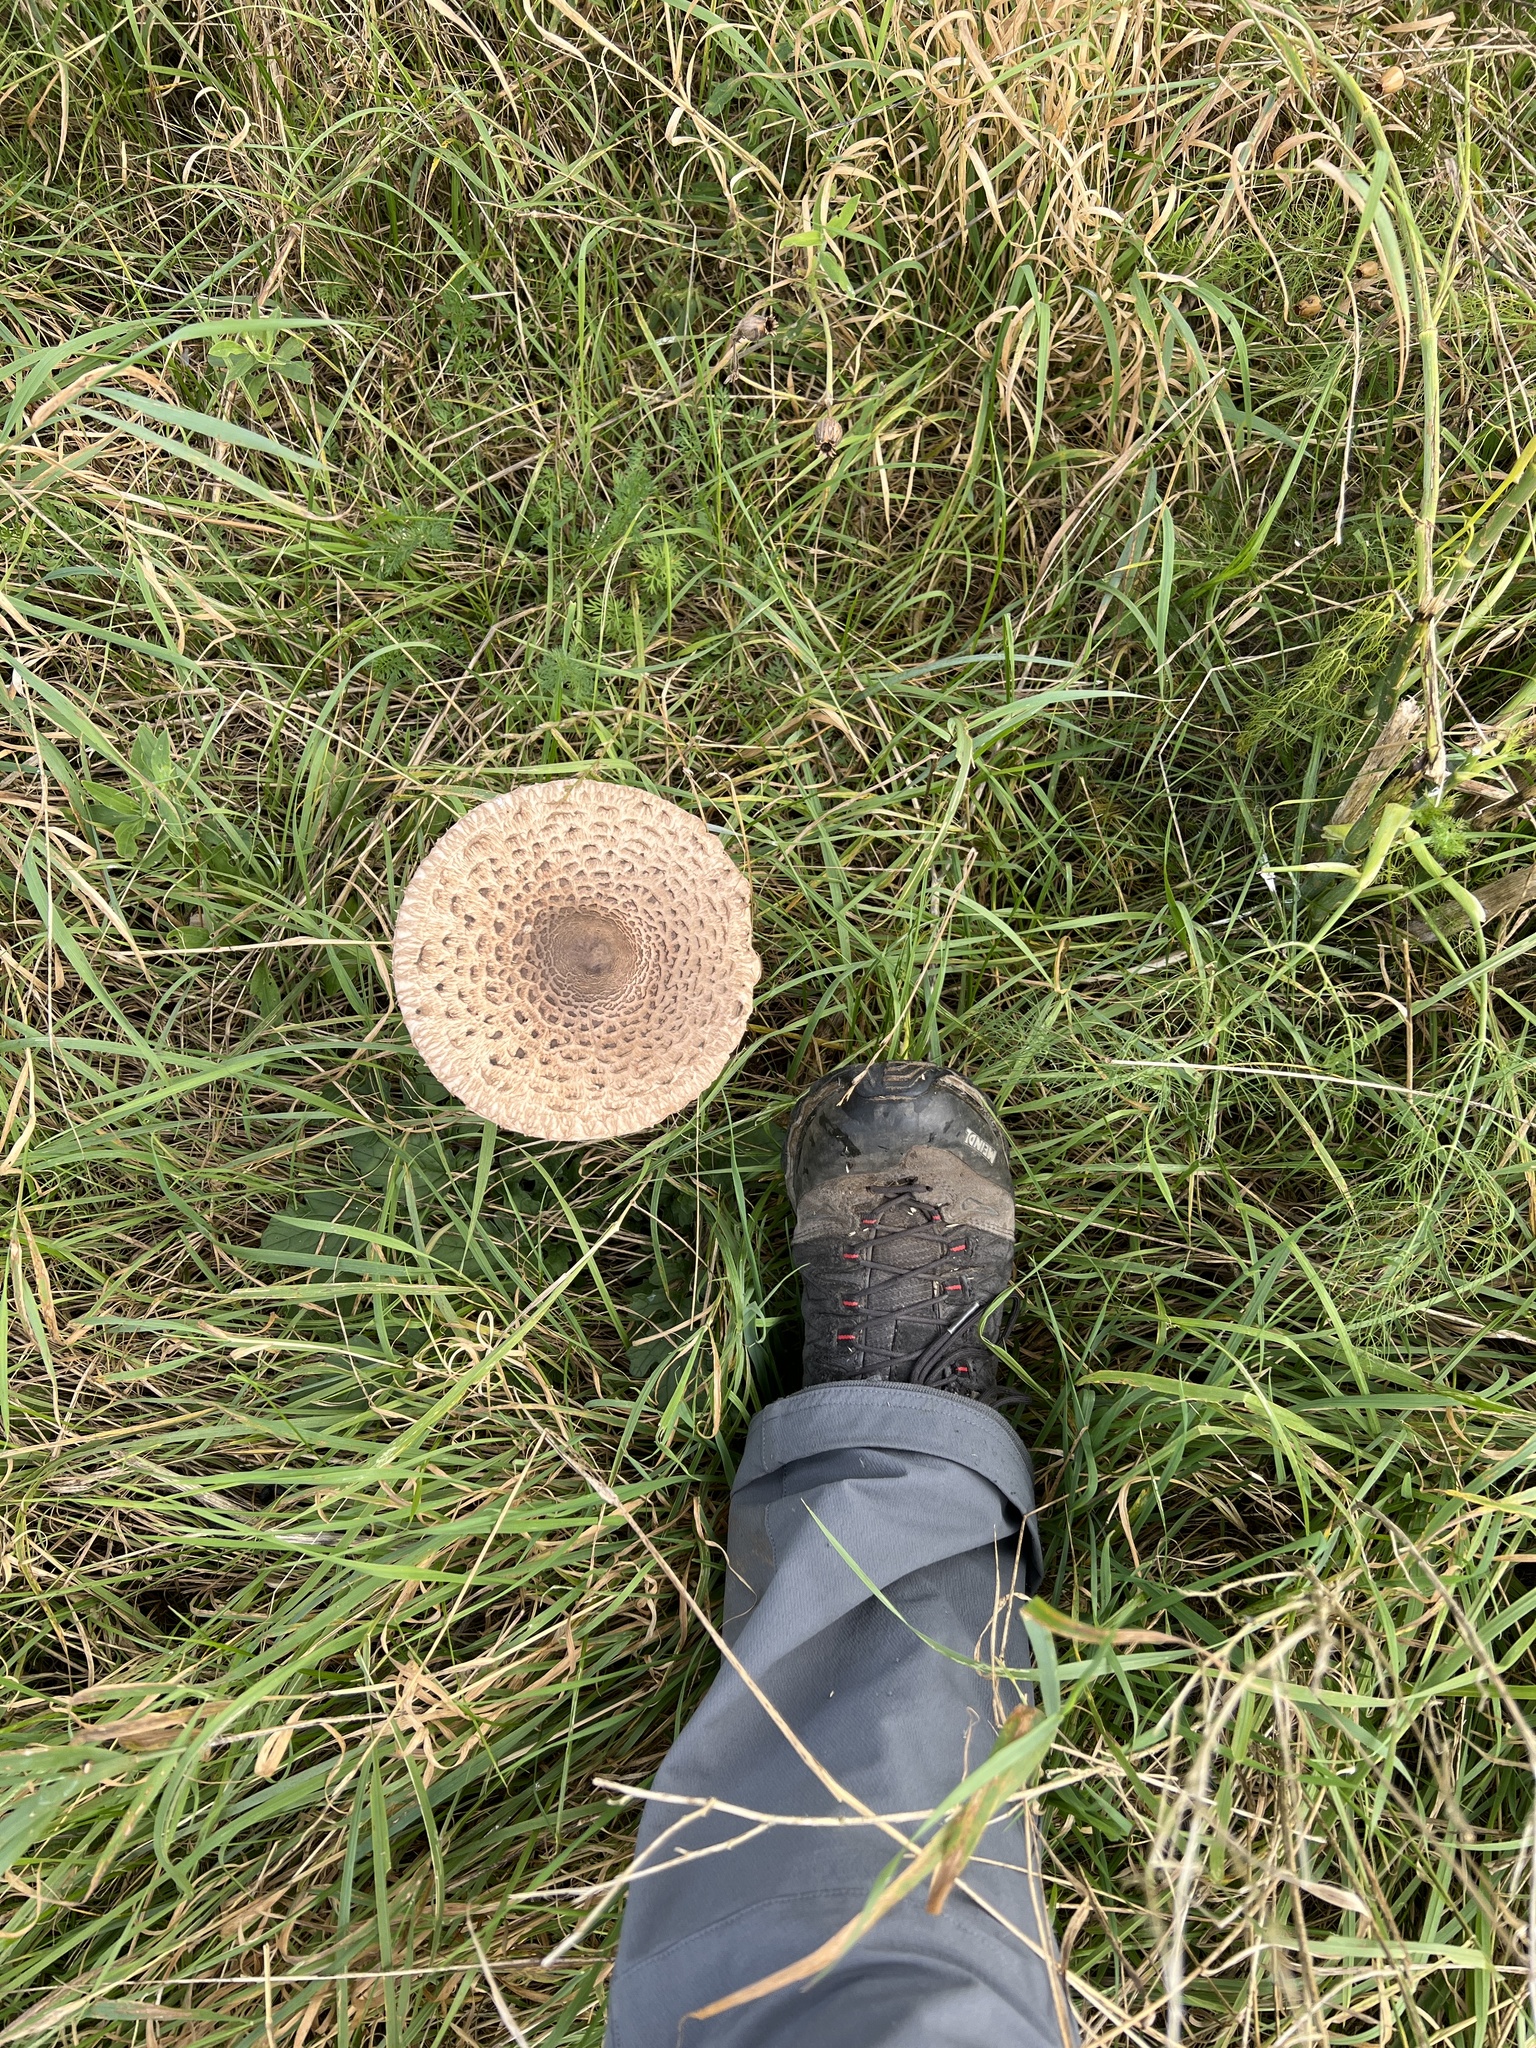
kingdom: Fungi
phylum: Basidiomycota
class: Agaricomycetes
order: Agaricales
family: Agaricaceae
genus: Macrolepiota
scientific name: Macrolepiota procera
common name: Parasol
